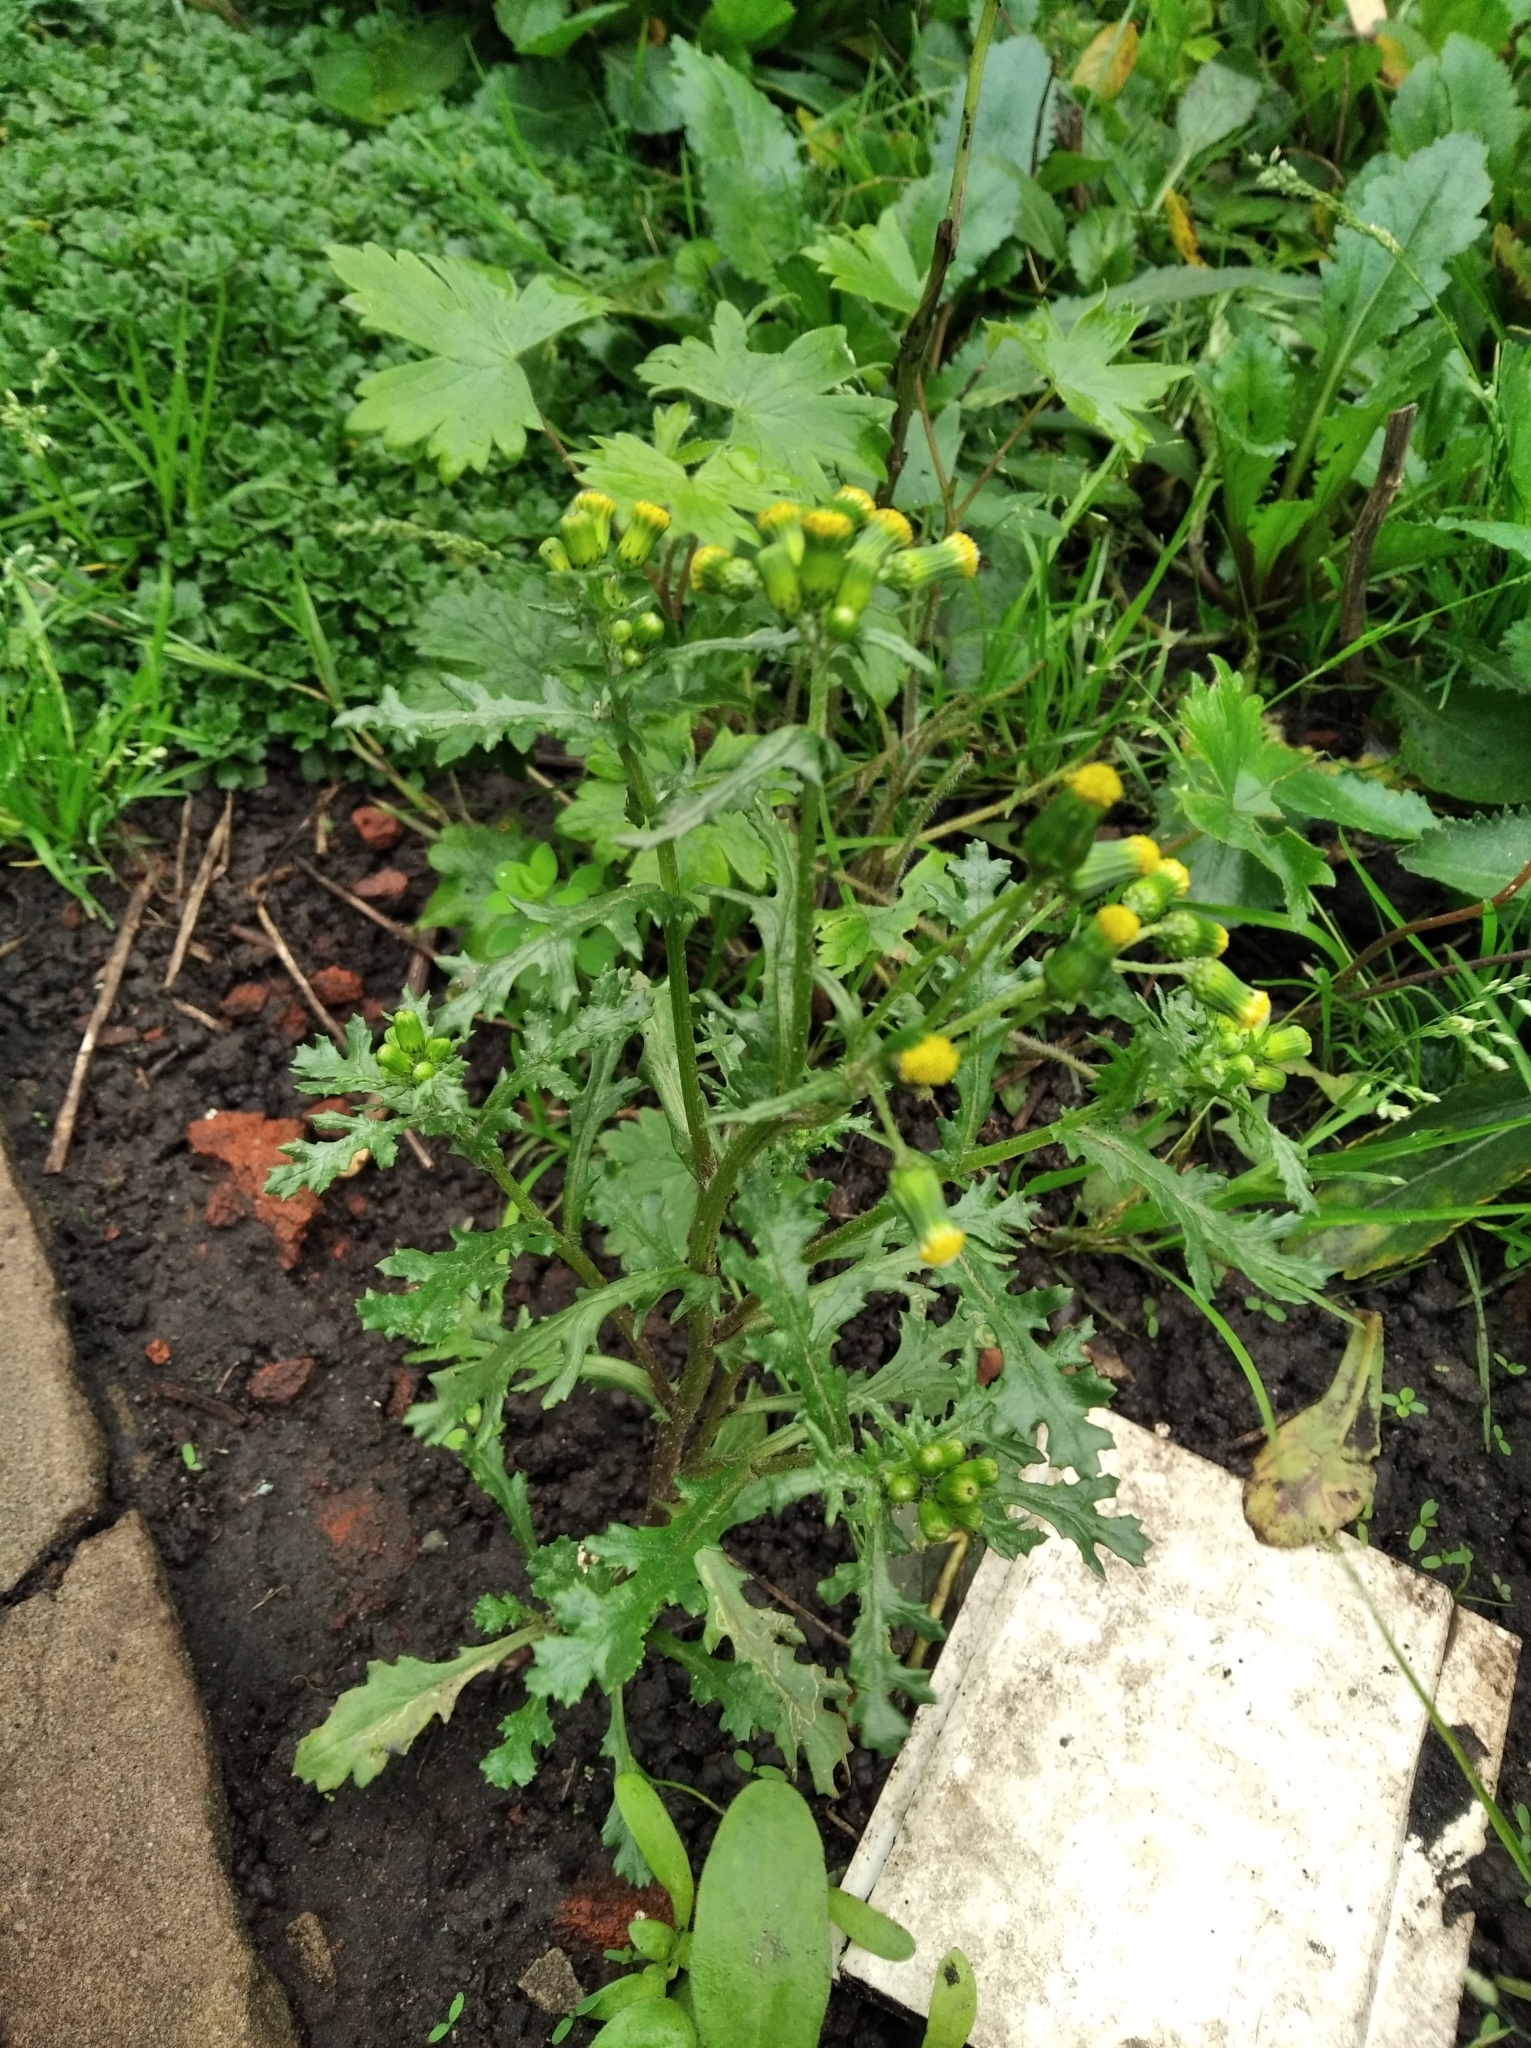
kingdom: Plantae
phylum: Tracheophyta
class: Magnoliopsida
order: Asterales
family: Asteraceae
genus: Senecio
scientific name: Senecio vulgaris
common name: Old-man-in-the-spring
